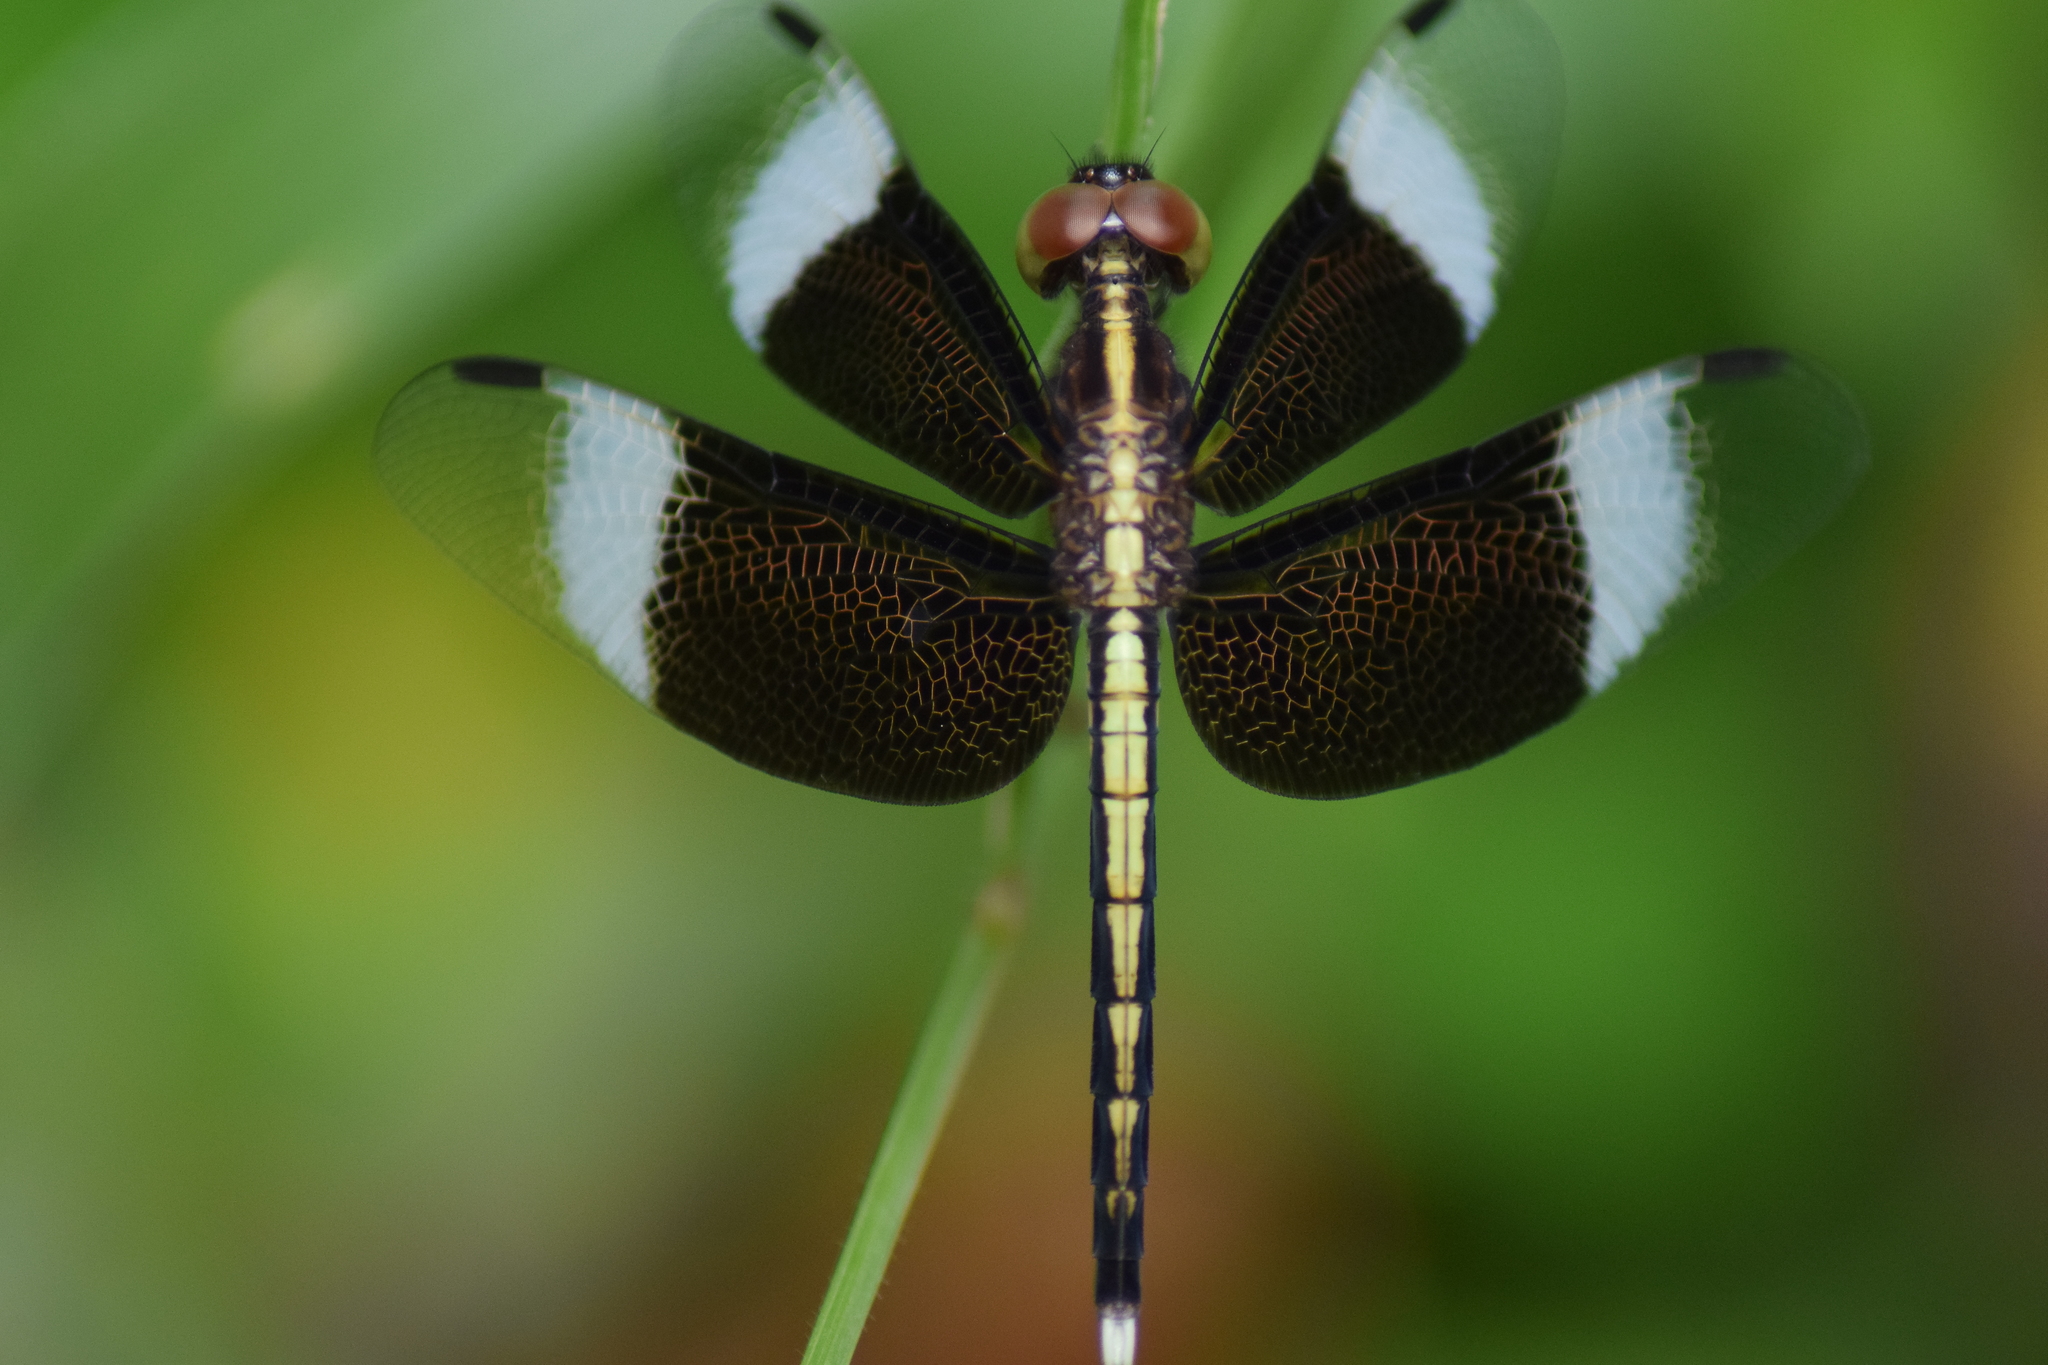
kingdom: Animalia
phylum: Arthropoda
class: Insecta
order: Odonata
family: Libellulidae
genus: Neurothemis
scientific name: Neurothemis tullia
